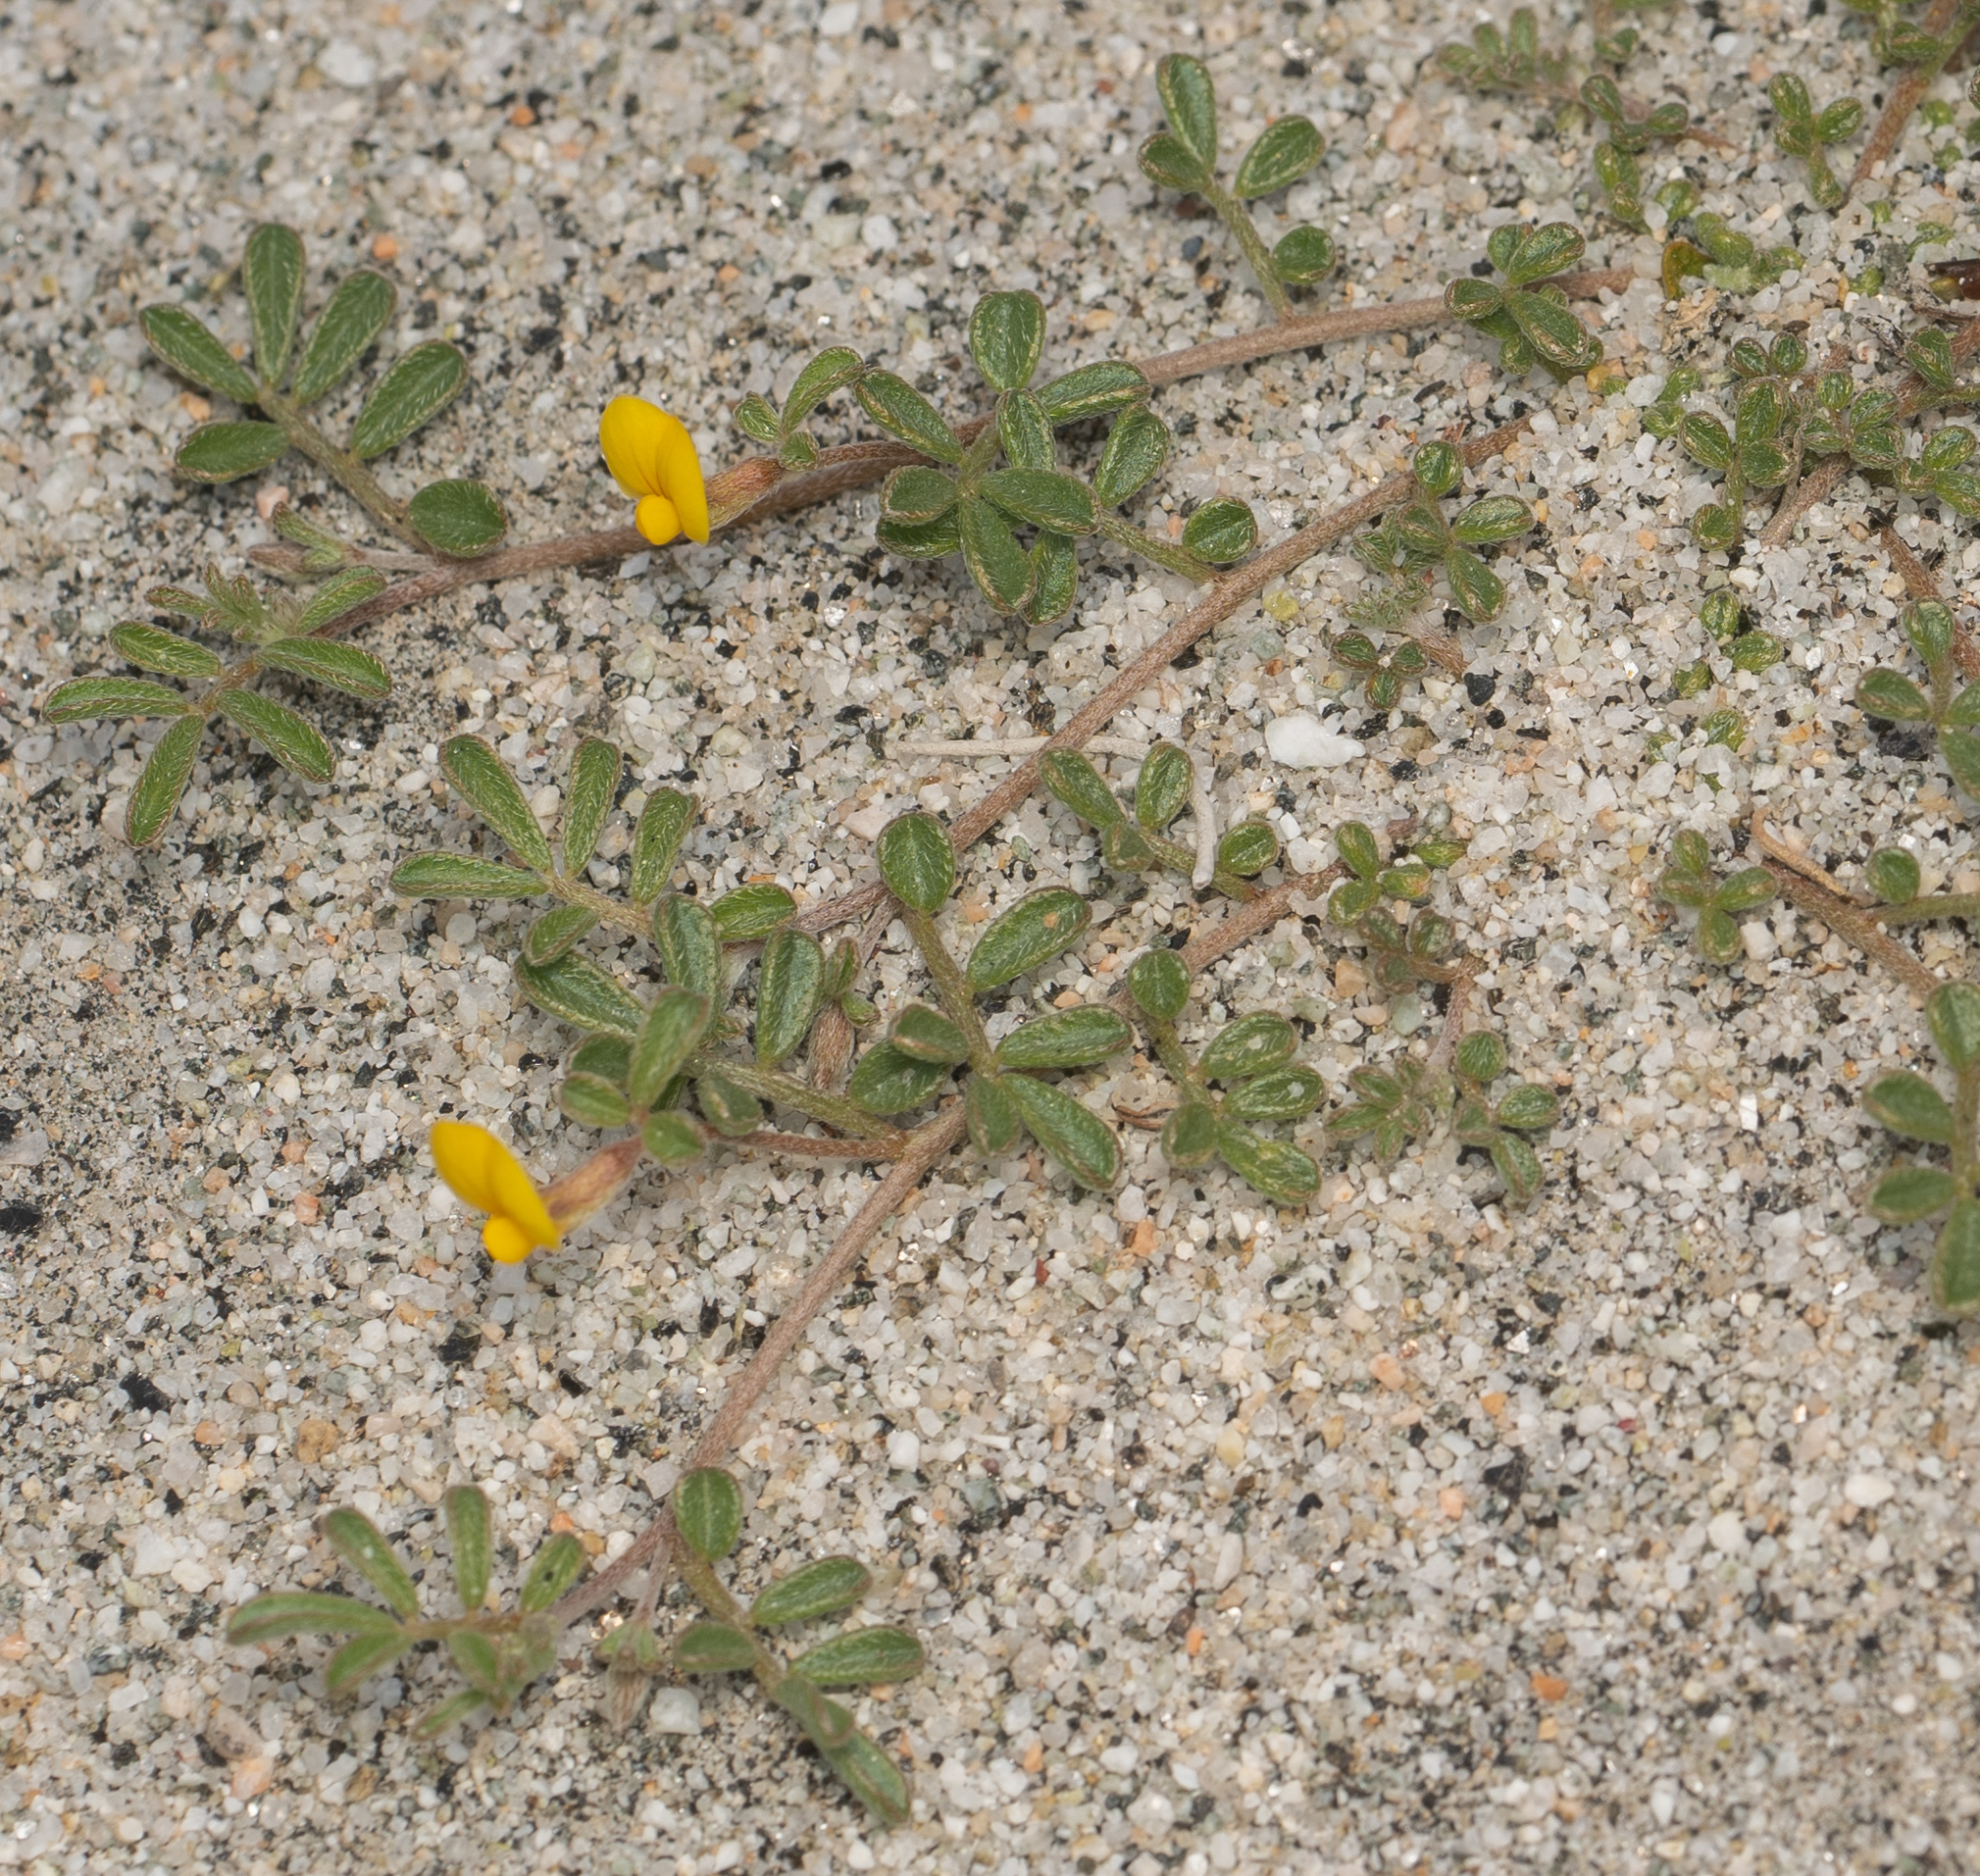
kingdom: Plantae
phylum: Tracheophyta
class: Magnoliopsida
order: Fabales
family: Fabaceae
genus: Acmispon
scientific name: Acmispon strigosus
